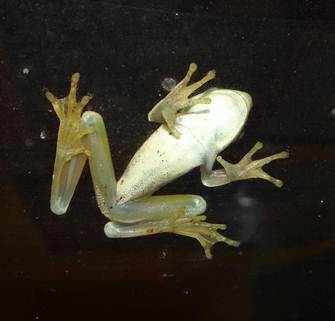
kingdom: Animalia
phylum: Chordata
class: Amphibia
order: Anura
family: Hylidae
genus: Boana
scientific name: Boana raniceps
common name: Chaco treefrog
